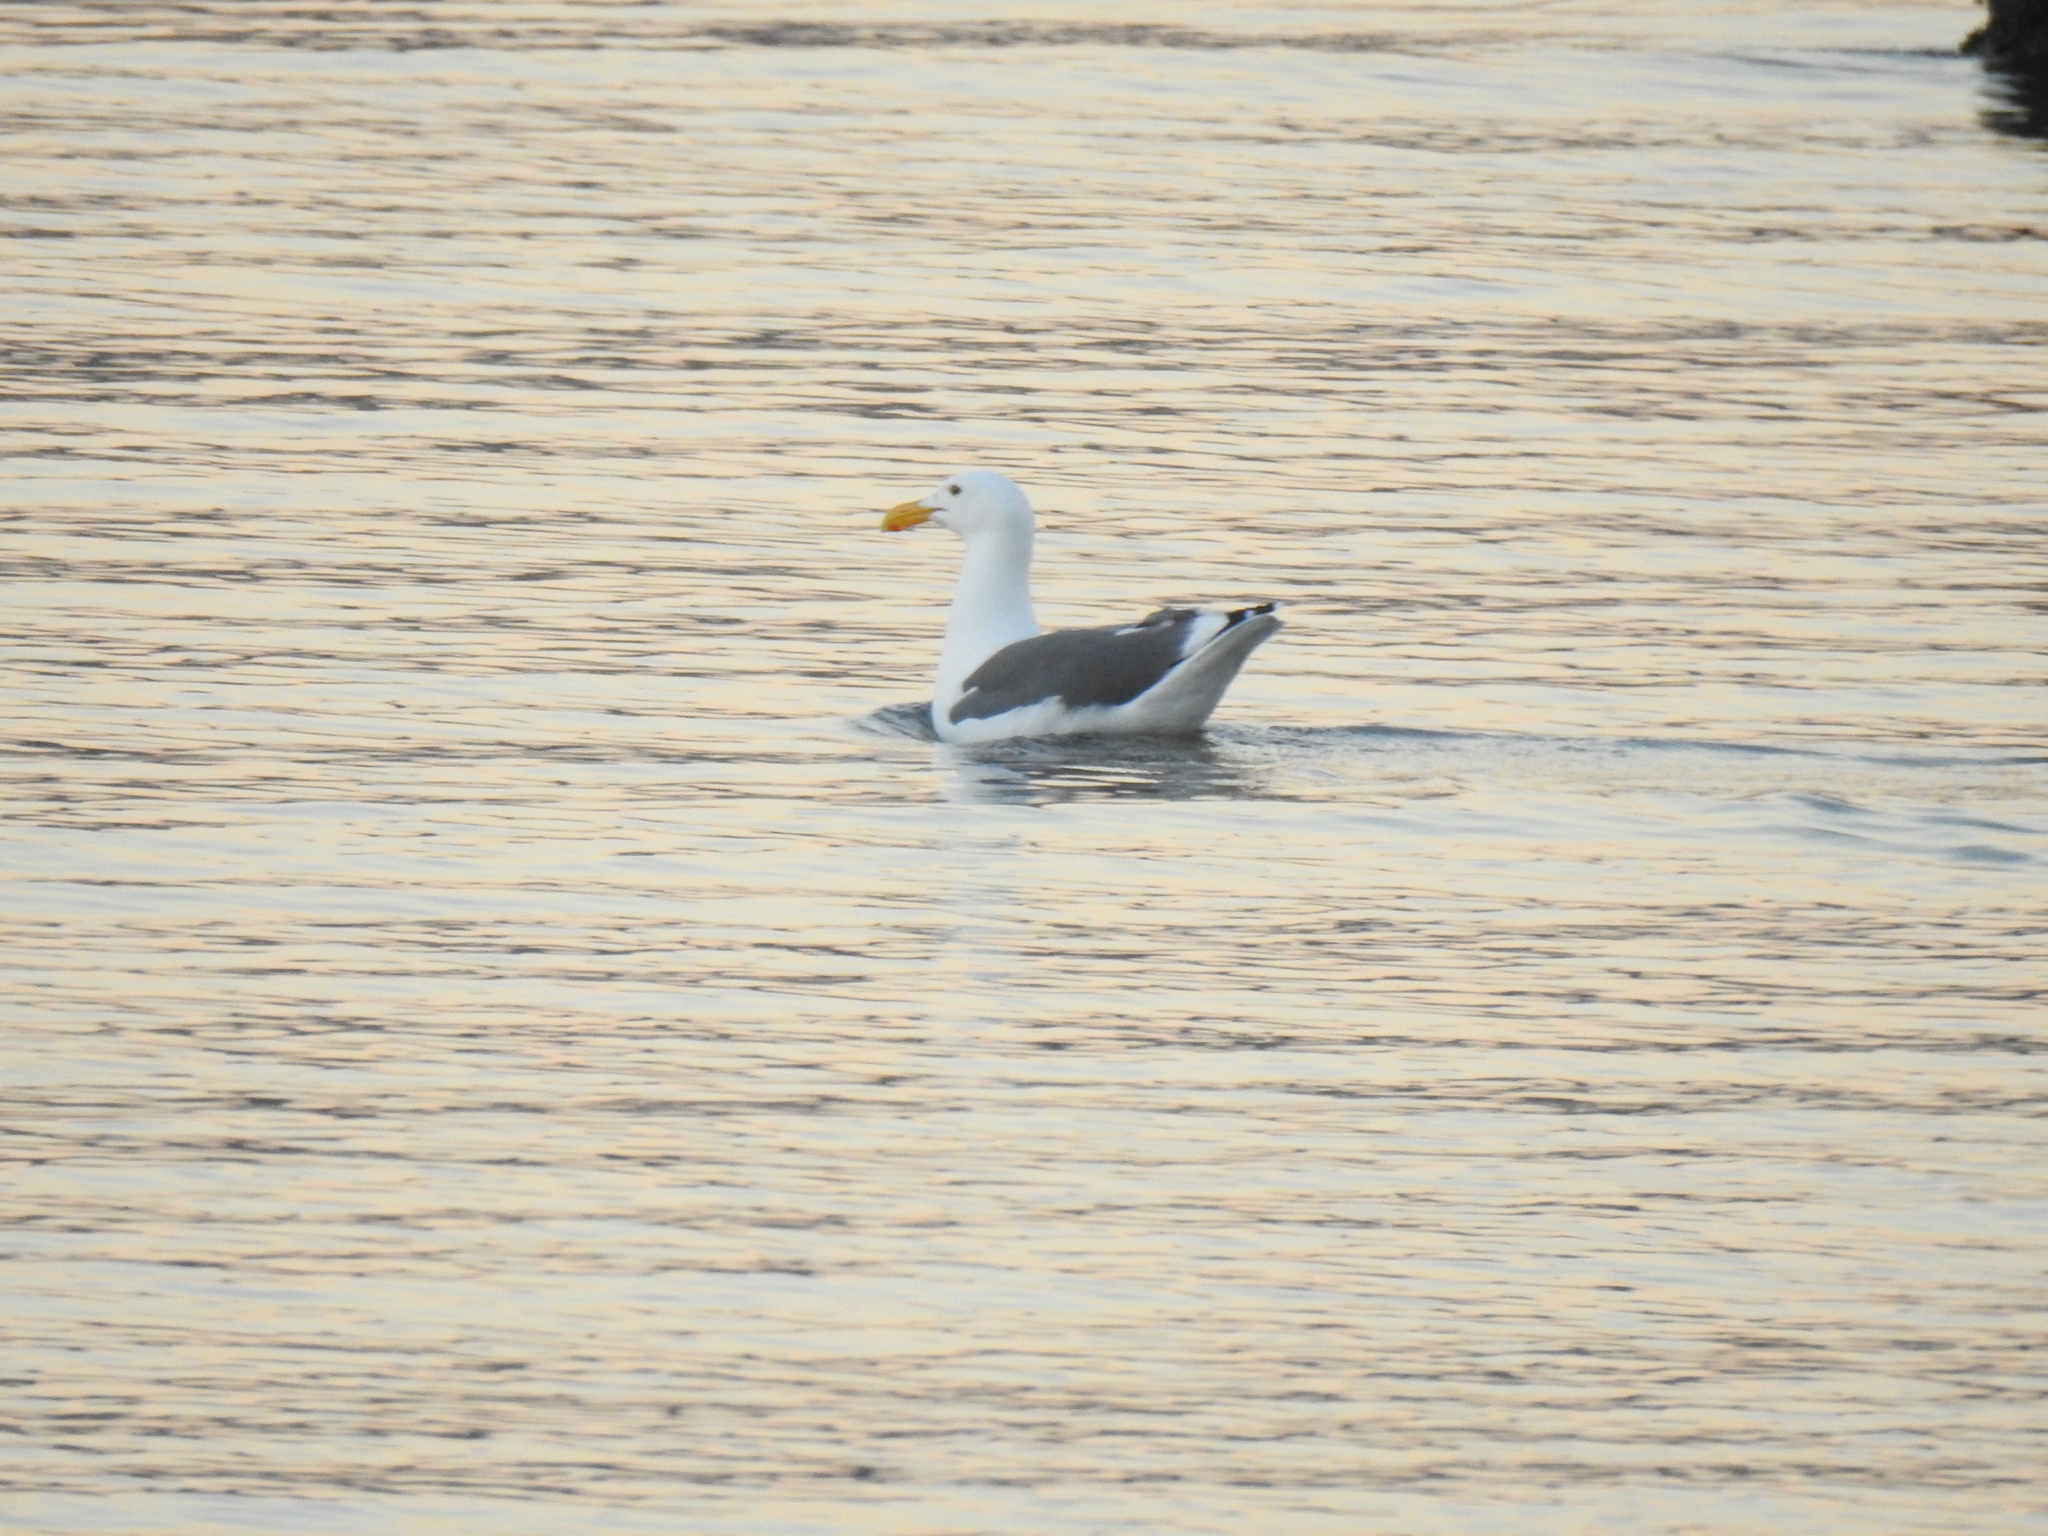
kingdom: Animalia
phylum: Chordata
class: Aves
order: Charadriiformes
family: Laridae
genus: Larus
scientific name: Larus occidentalis
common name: Western gull
